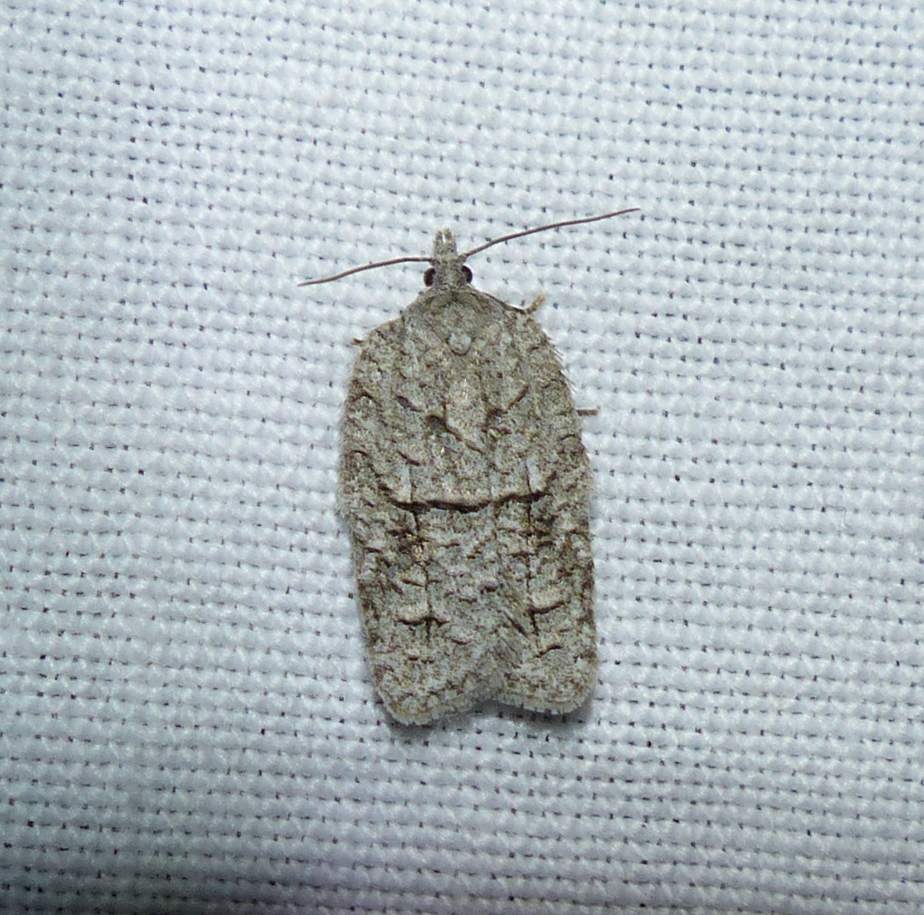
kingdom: Animalia
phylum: Arthropoda
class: Insecta
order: Lepidoptera
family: Tortricidae
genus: Acleris
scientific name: Acleris nigrolinea
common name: Black-lined acleris
